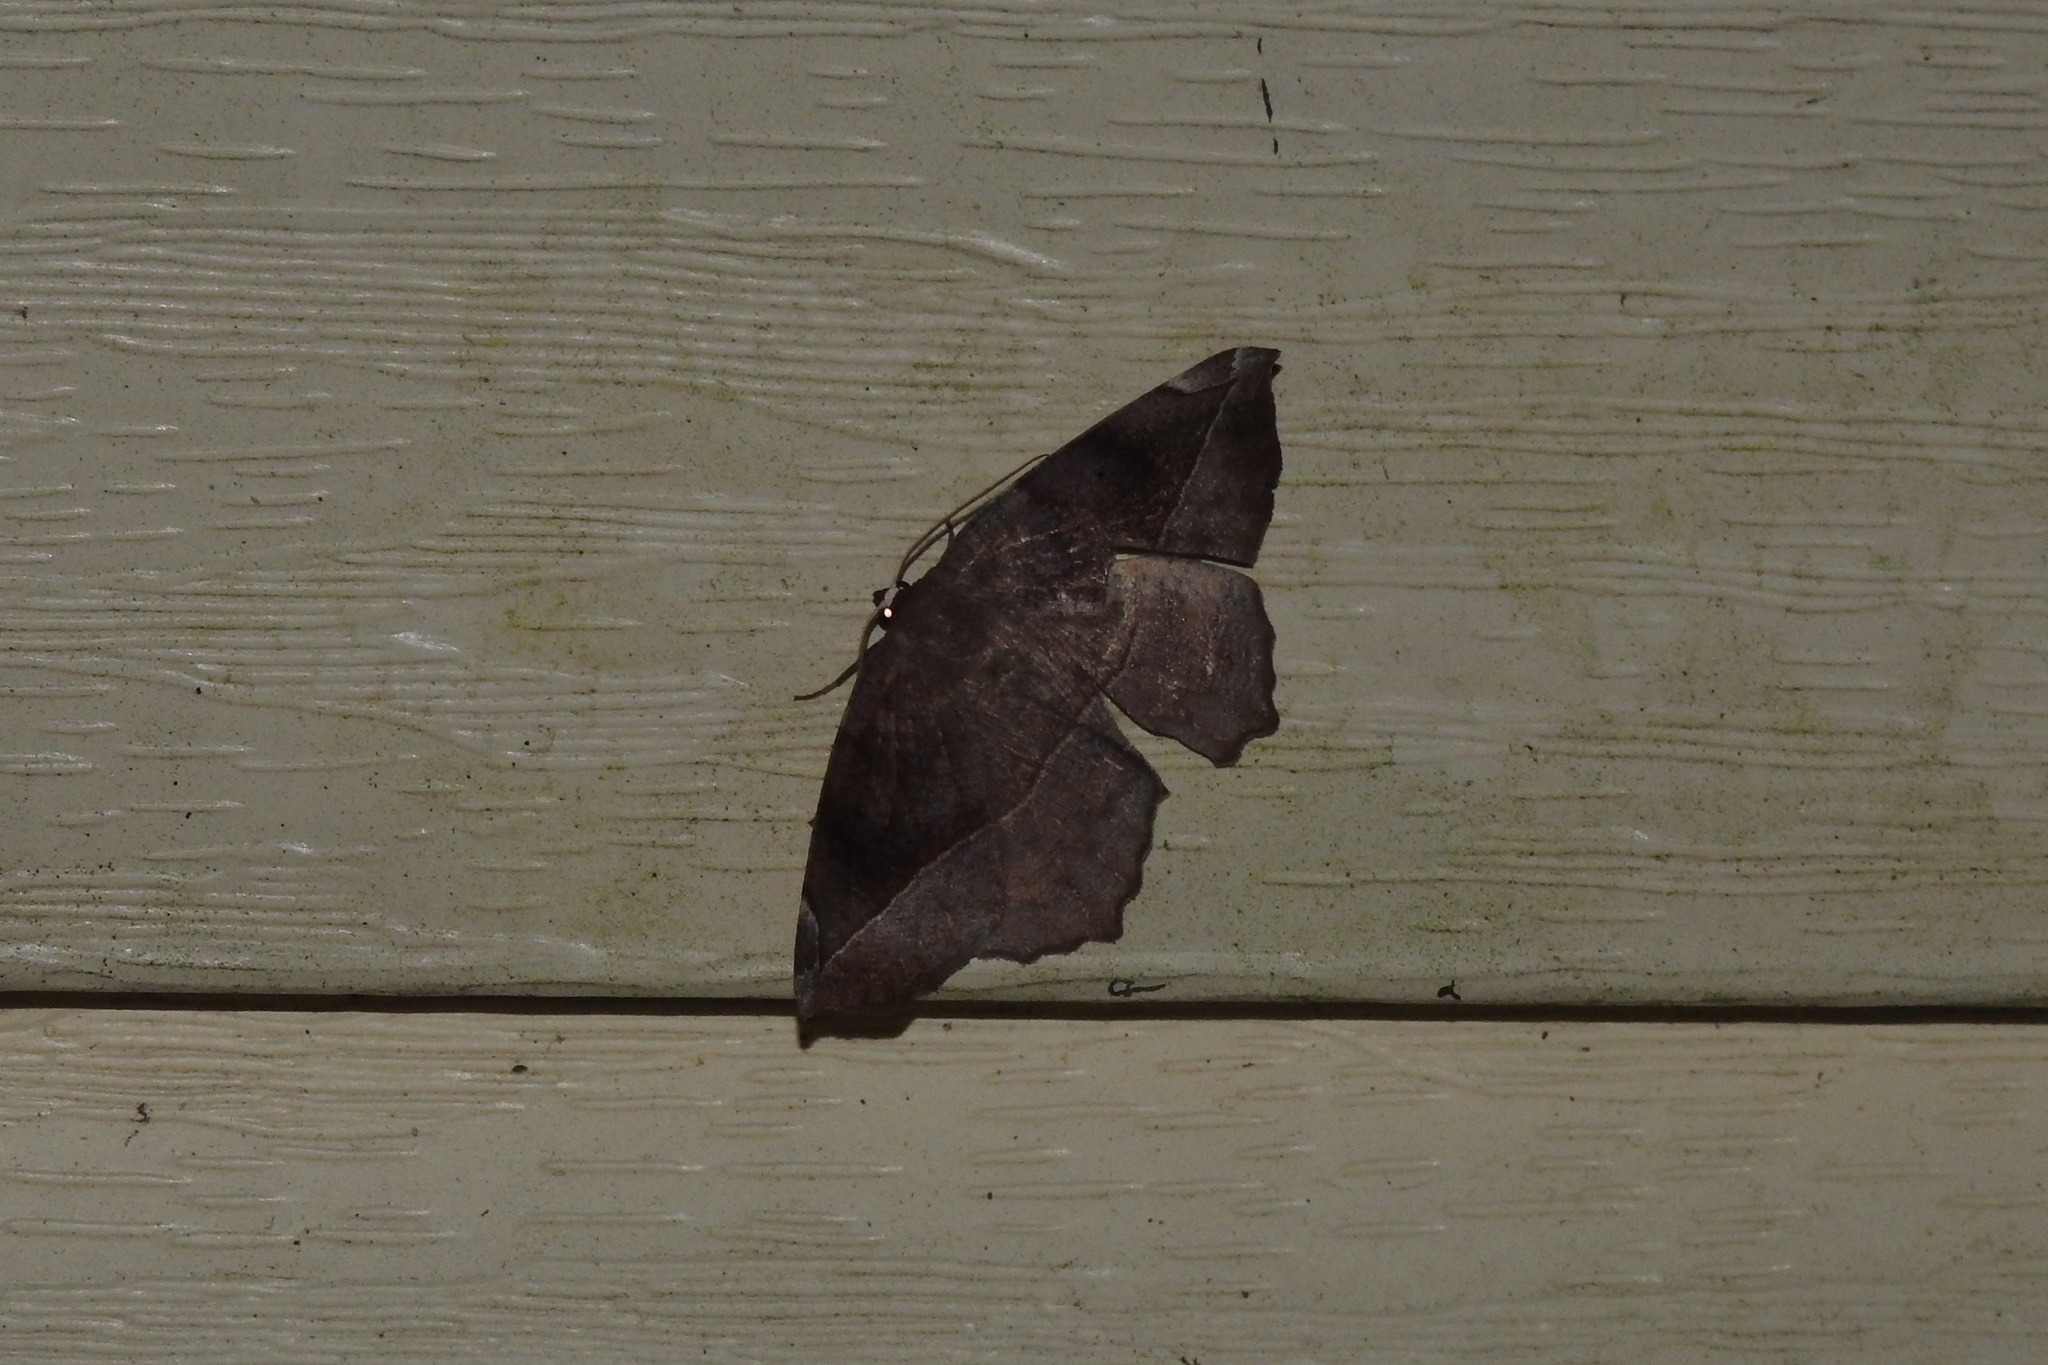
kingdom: Animalia
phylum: Arthropoda
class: Insecta
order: Lepidoptera
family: Geometridae
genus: Eutrapela
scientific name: Eutrapela clemataria
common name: Curved-toothed geometer
